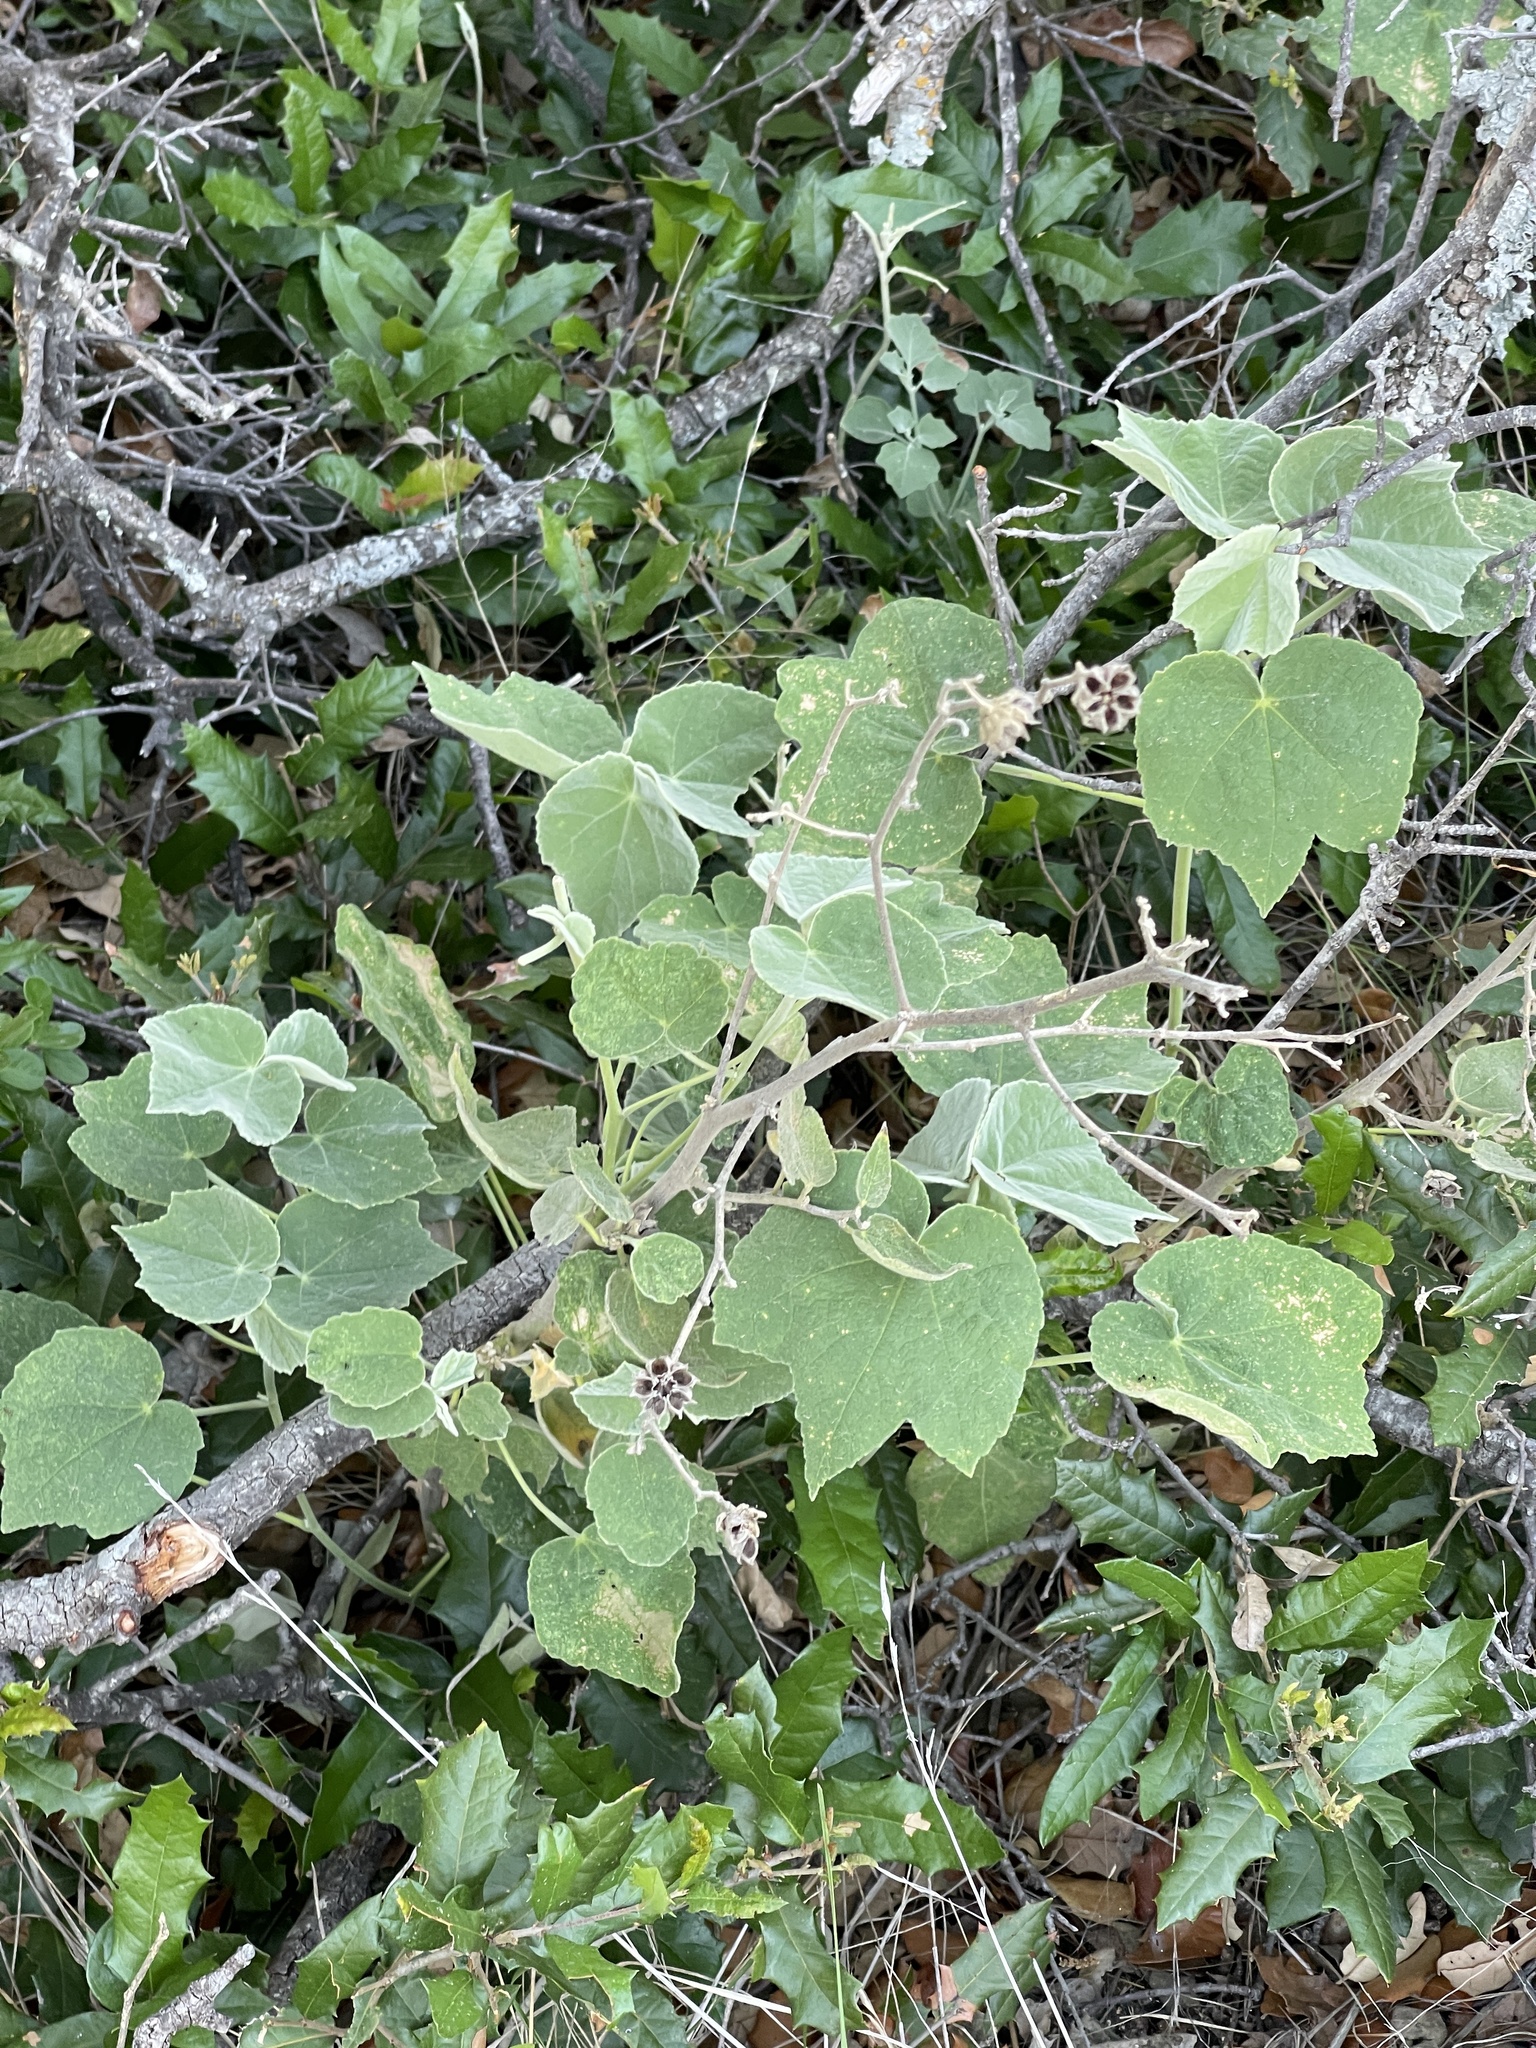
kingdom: Plantae
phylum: Tracheophyta
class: Magnoliopsida
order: Malvales
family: Malvaceae
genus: Allowissadula
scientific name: Allowissadula holosericea
